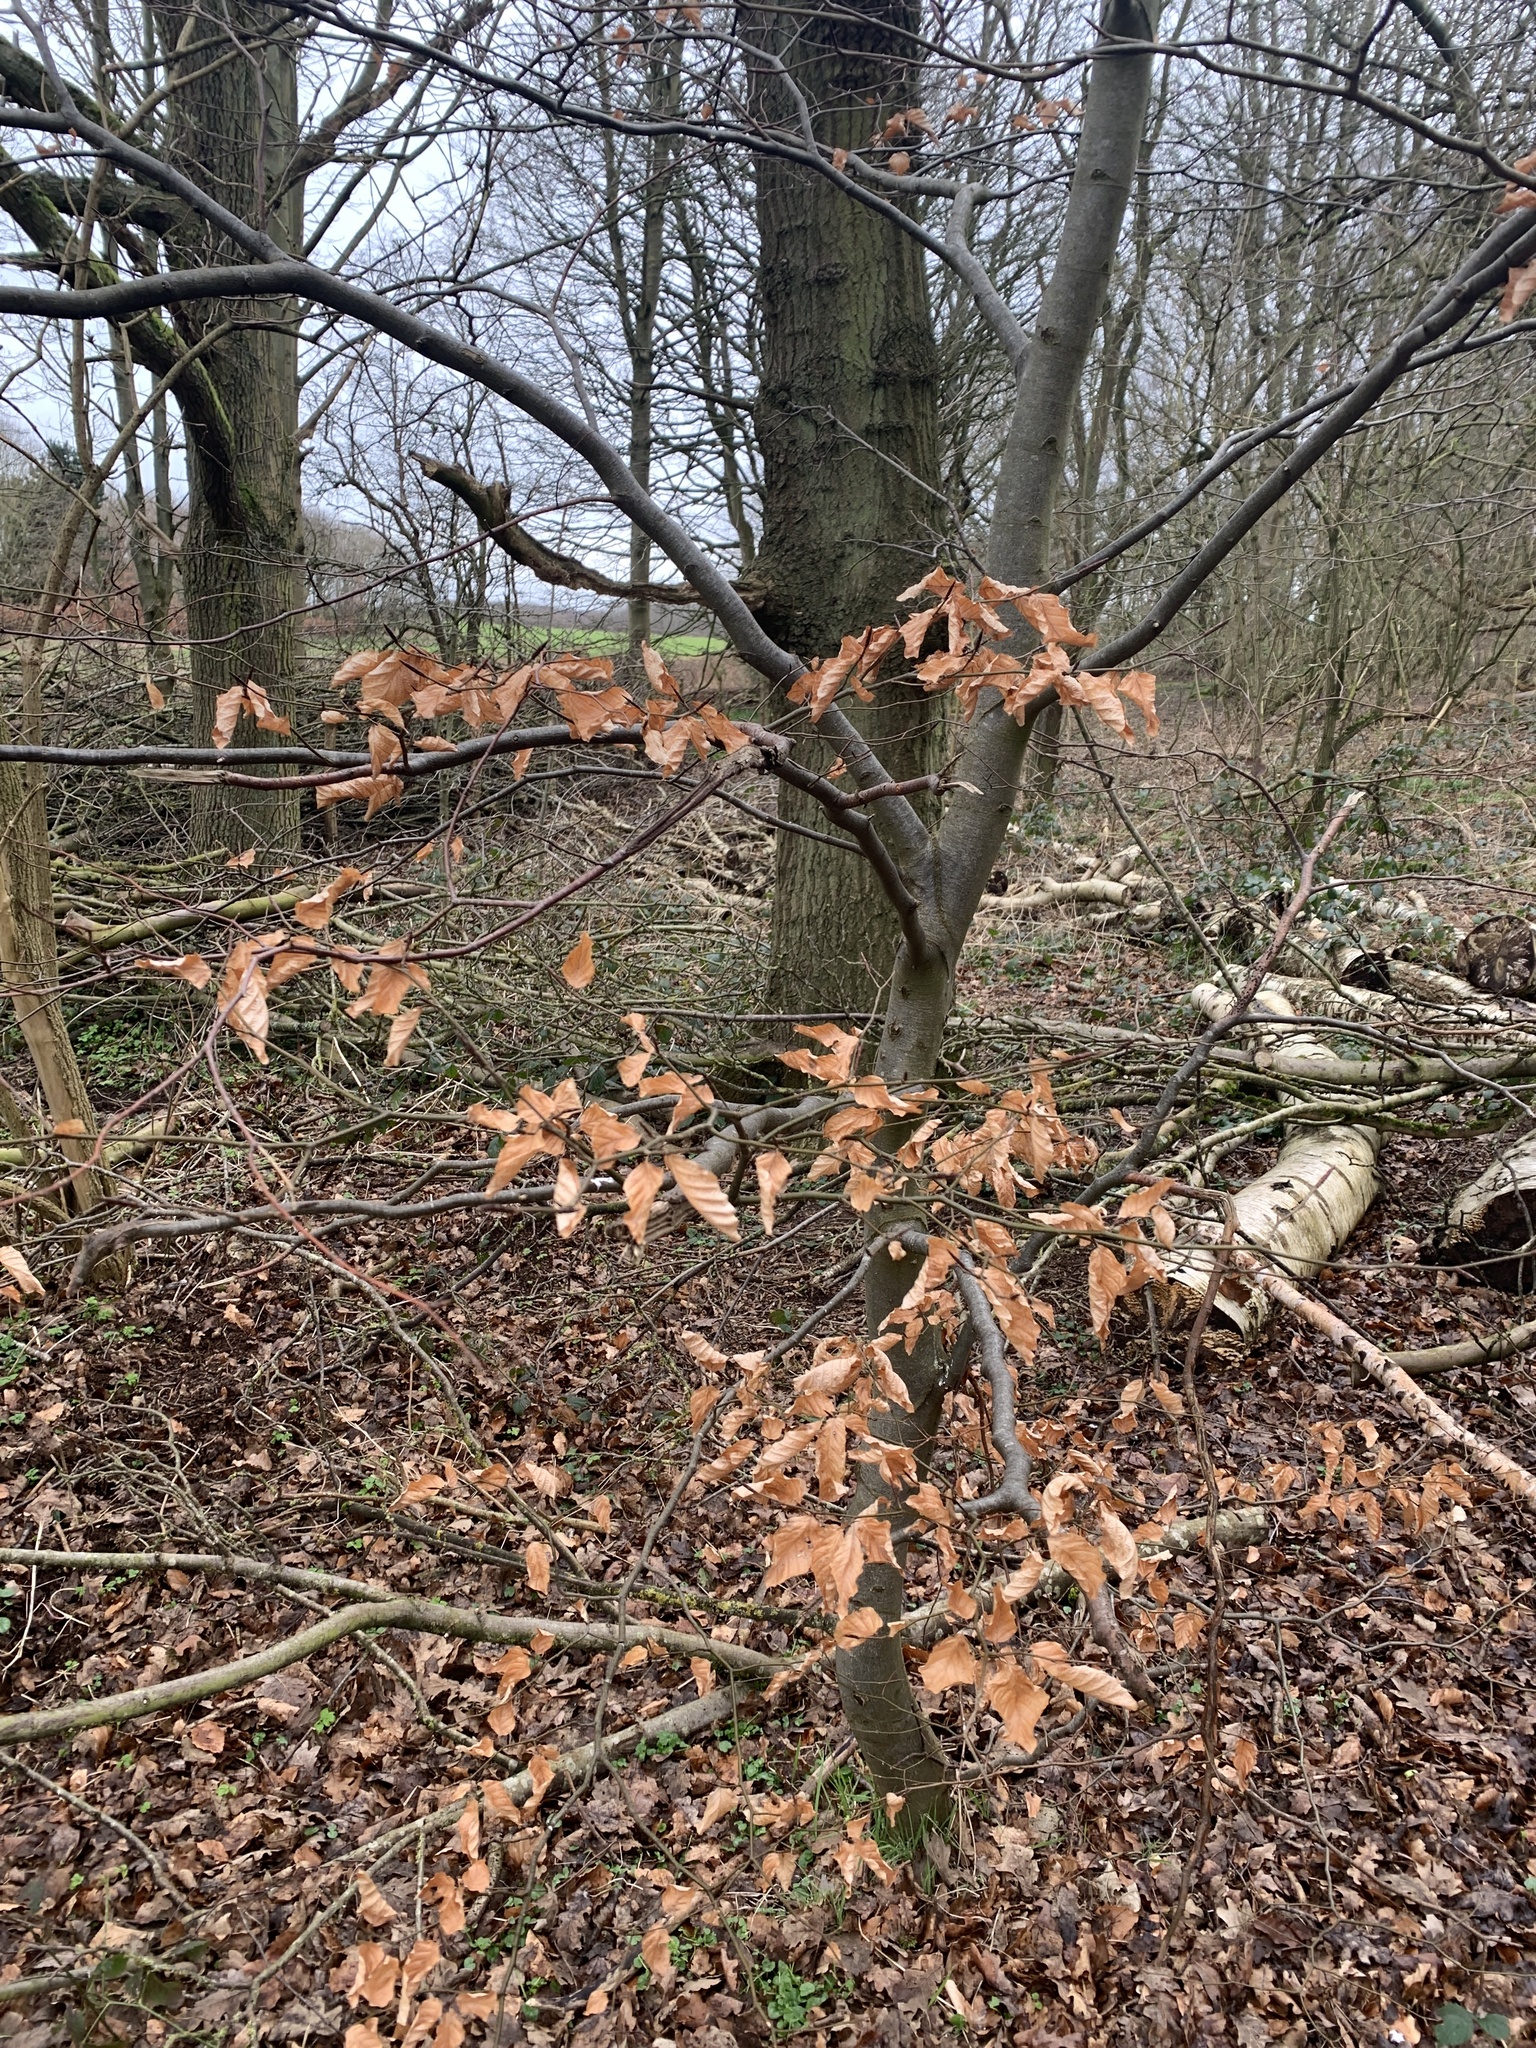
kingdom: Plantae
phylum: Tracheophyta
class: Magnoliopsida
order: Fagales
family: Fagaceae
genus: Fagus
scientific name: Fagus sylvatica
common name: Beech
